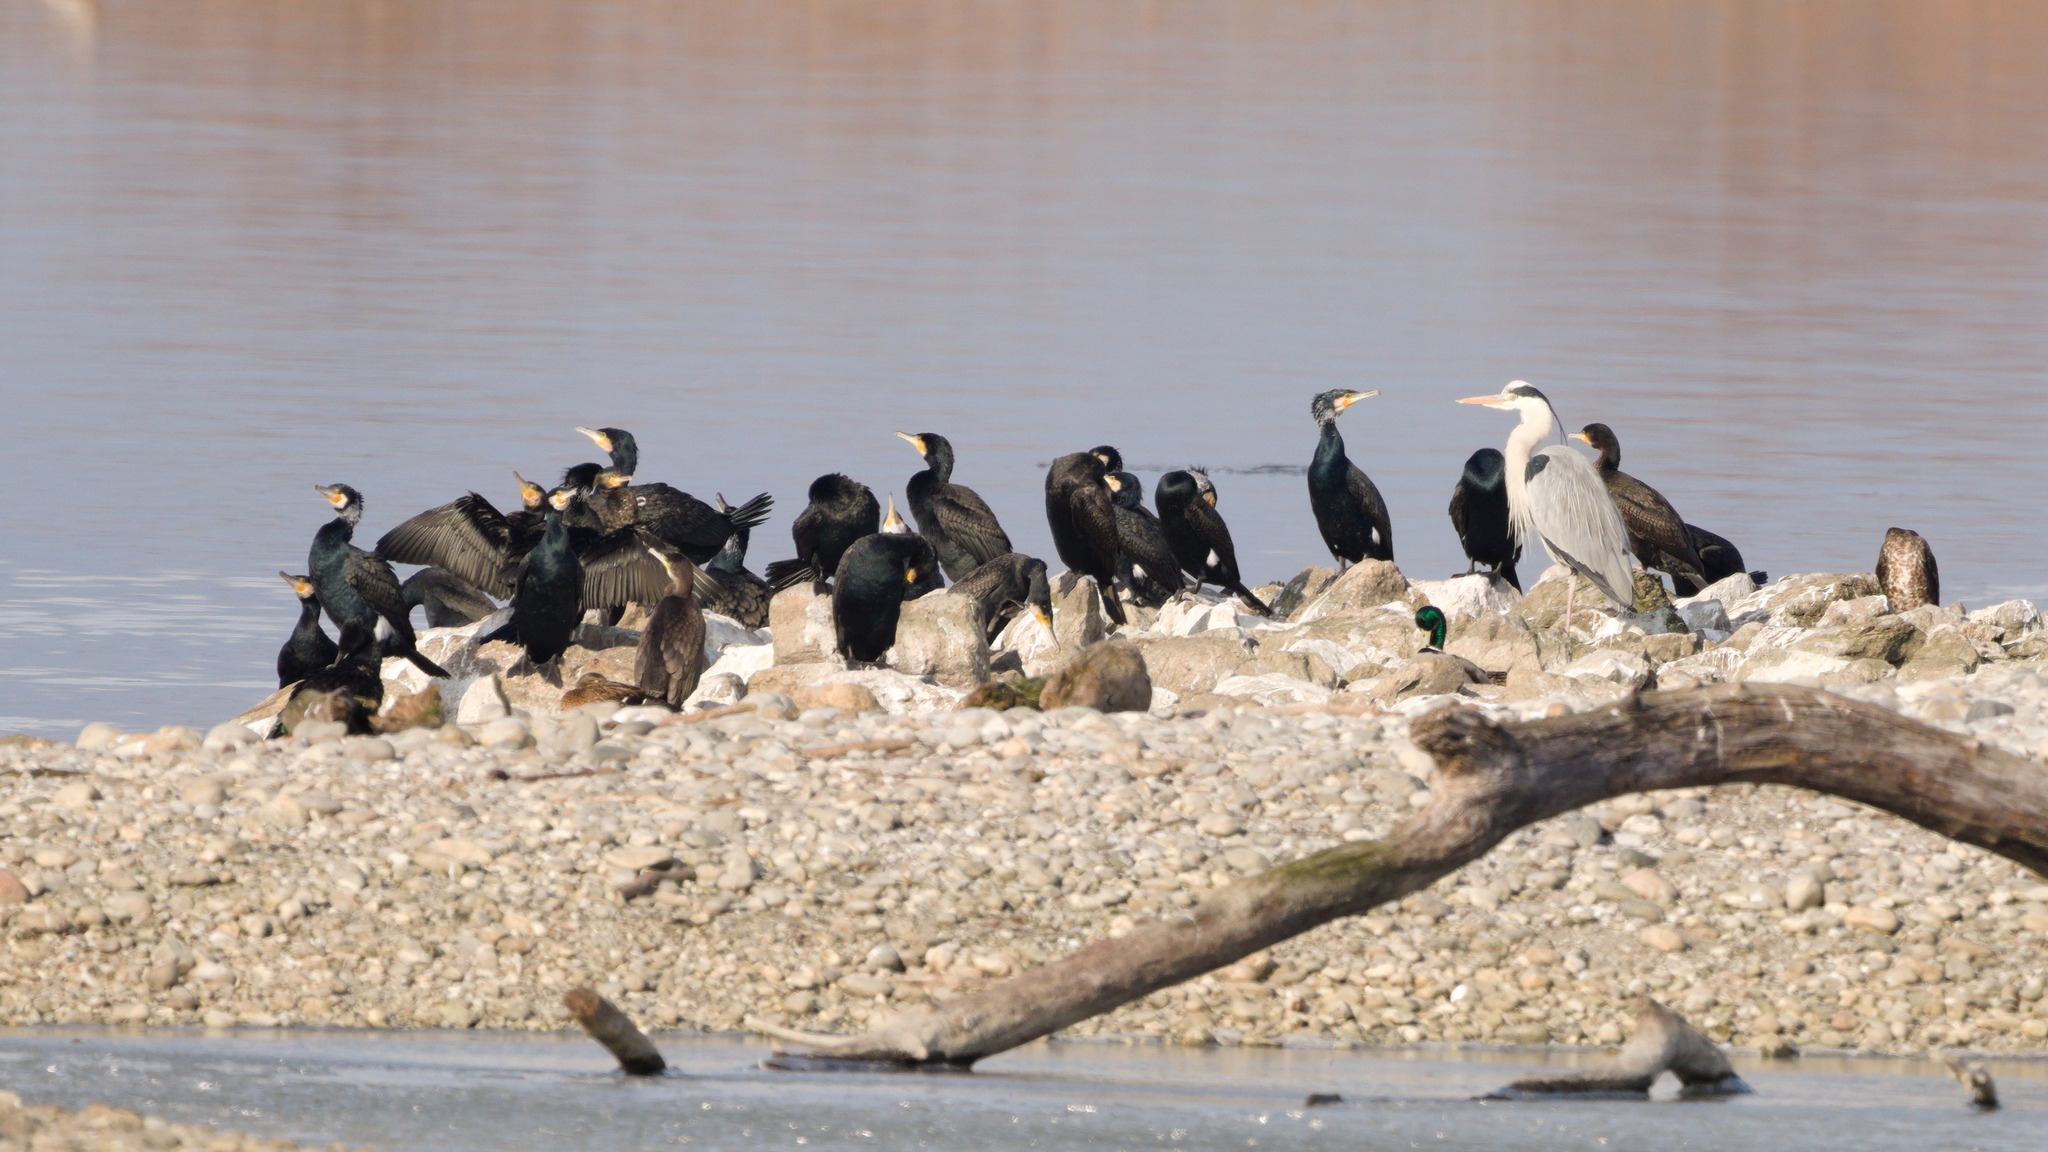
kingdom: Animalia
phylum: Chordata
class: Aves
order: Suliformes
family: Phalacrocoracidae
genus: Phalacrocorax
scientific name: Phalacrocorax carbo
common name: Great cormorant
